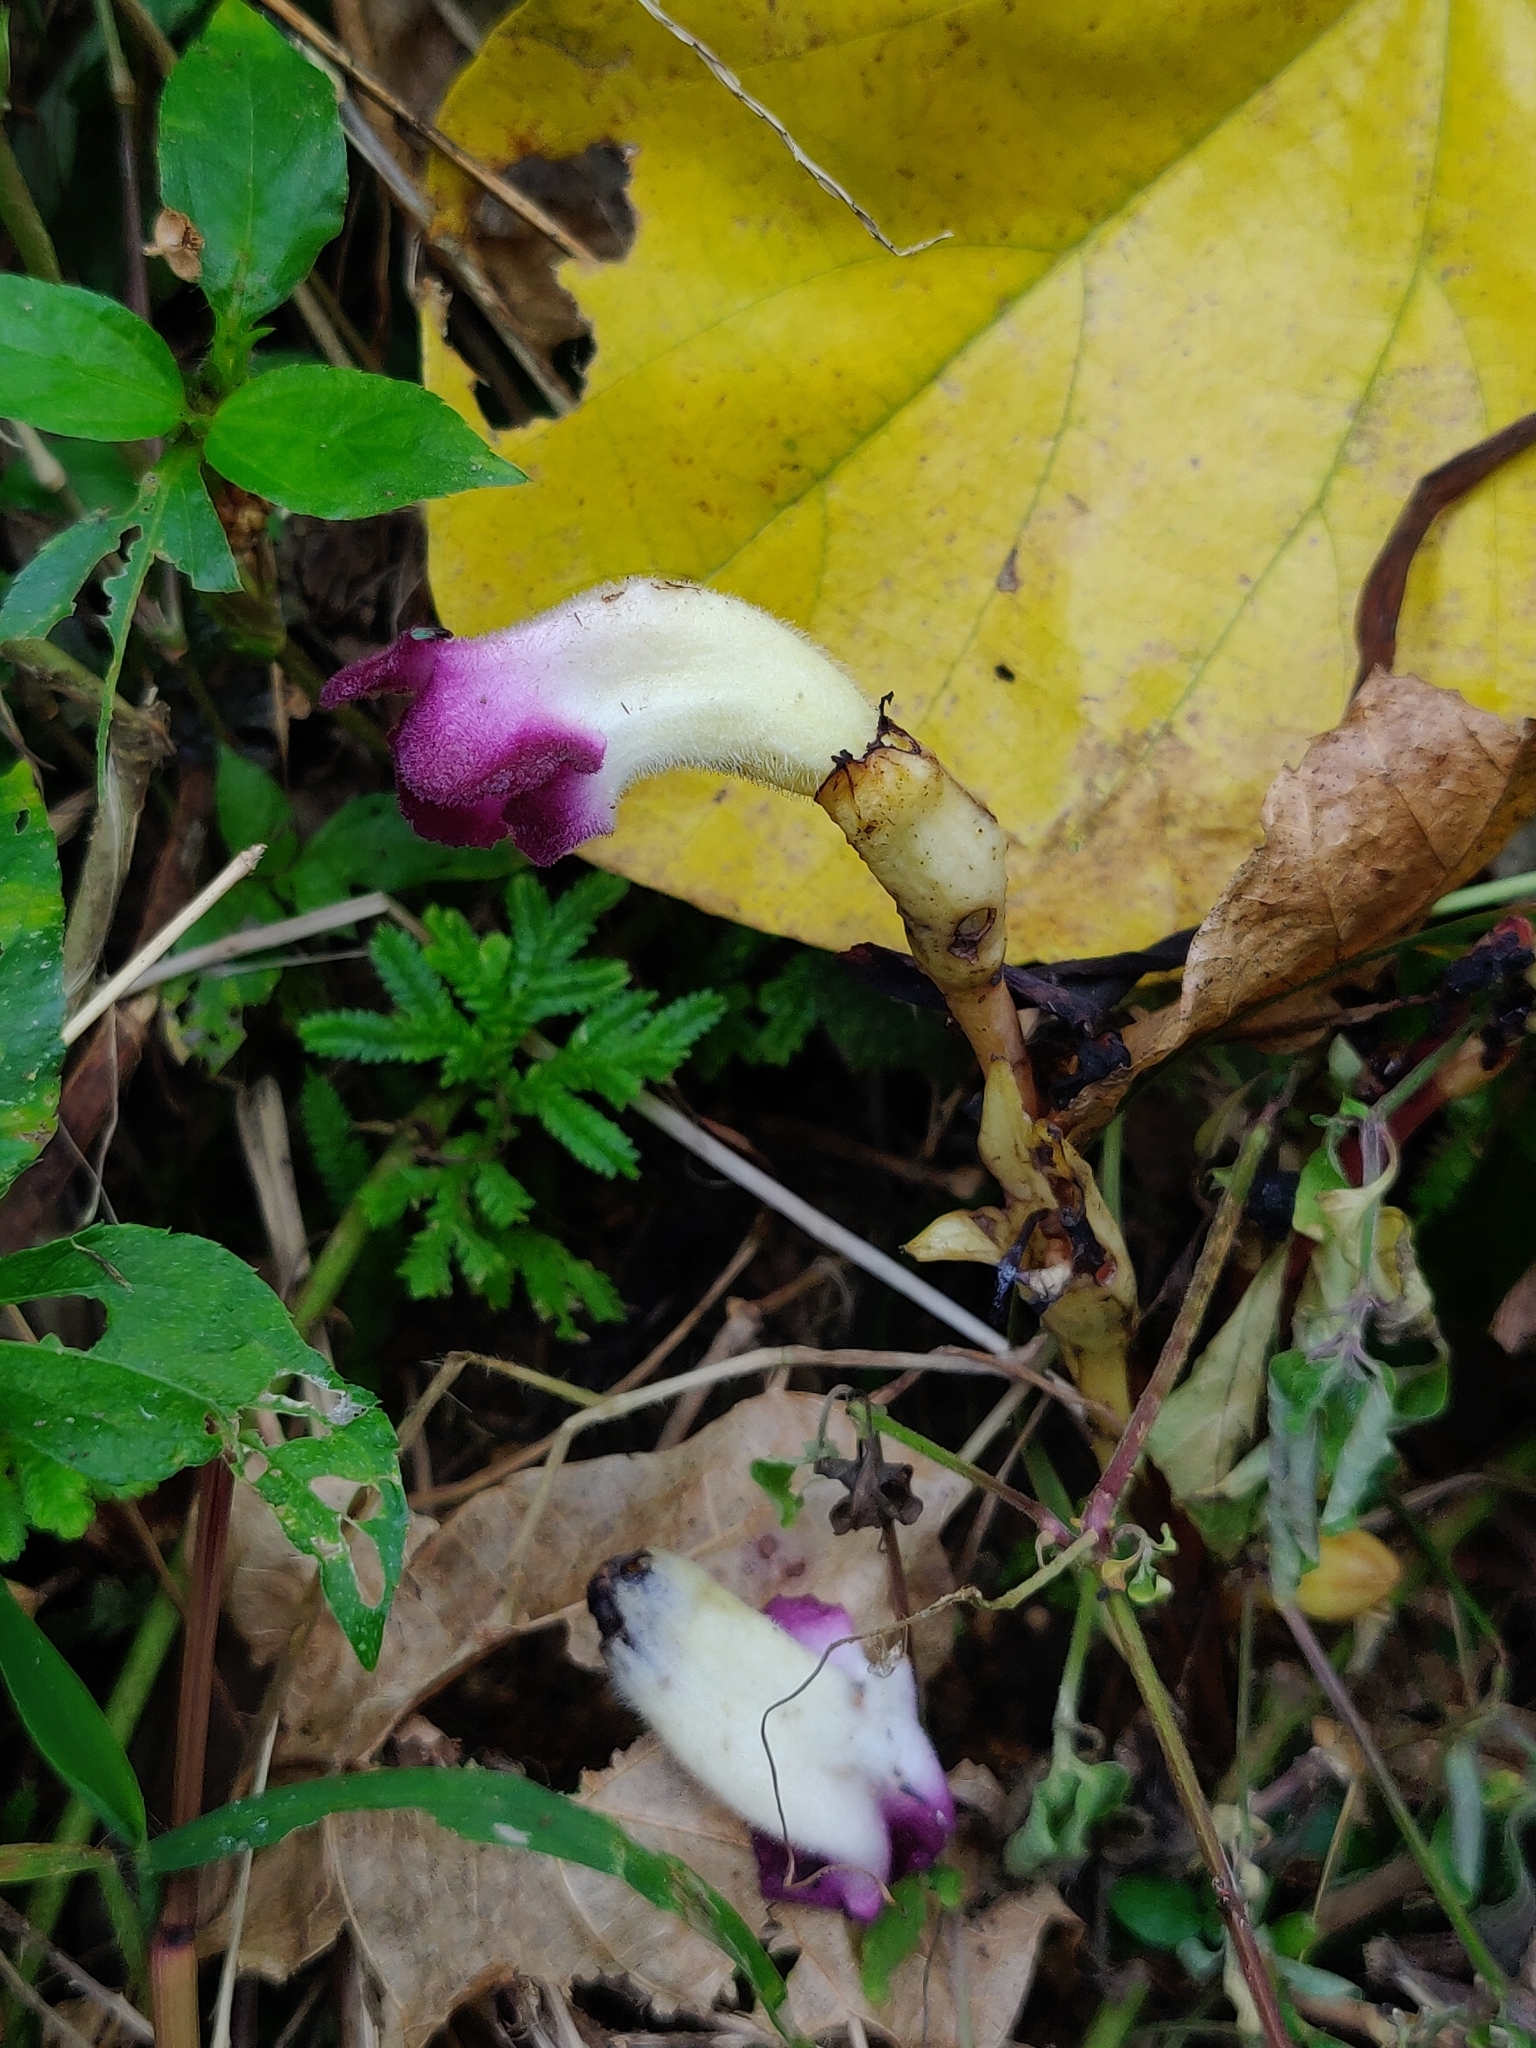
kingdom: Plantae
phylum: Tracheophyta
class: Magnoliopsida
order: Lamiales
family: Orobanchaceae
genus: Christisonia
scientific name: Christisonia tubulosa
